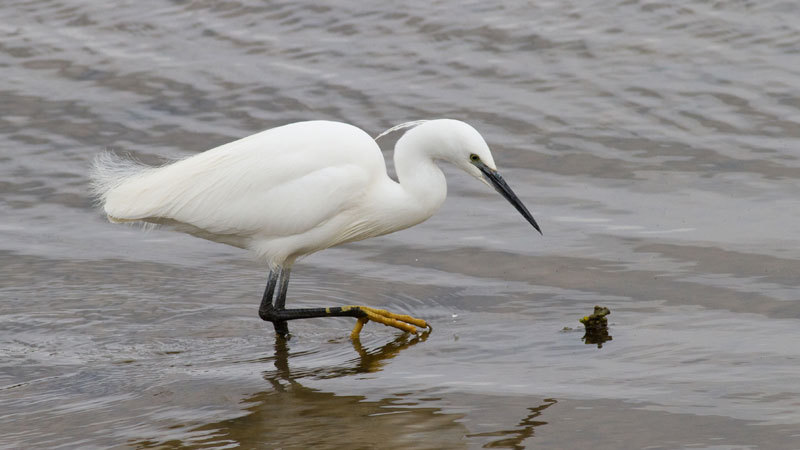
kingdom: Animalia
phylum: Chordata
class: Aves
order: Pelecaniformes
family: Ardeidae
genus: Egretta
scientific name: Egretta garzetta
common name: Little egret
